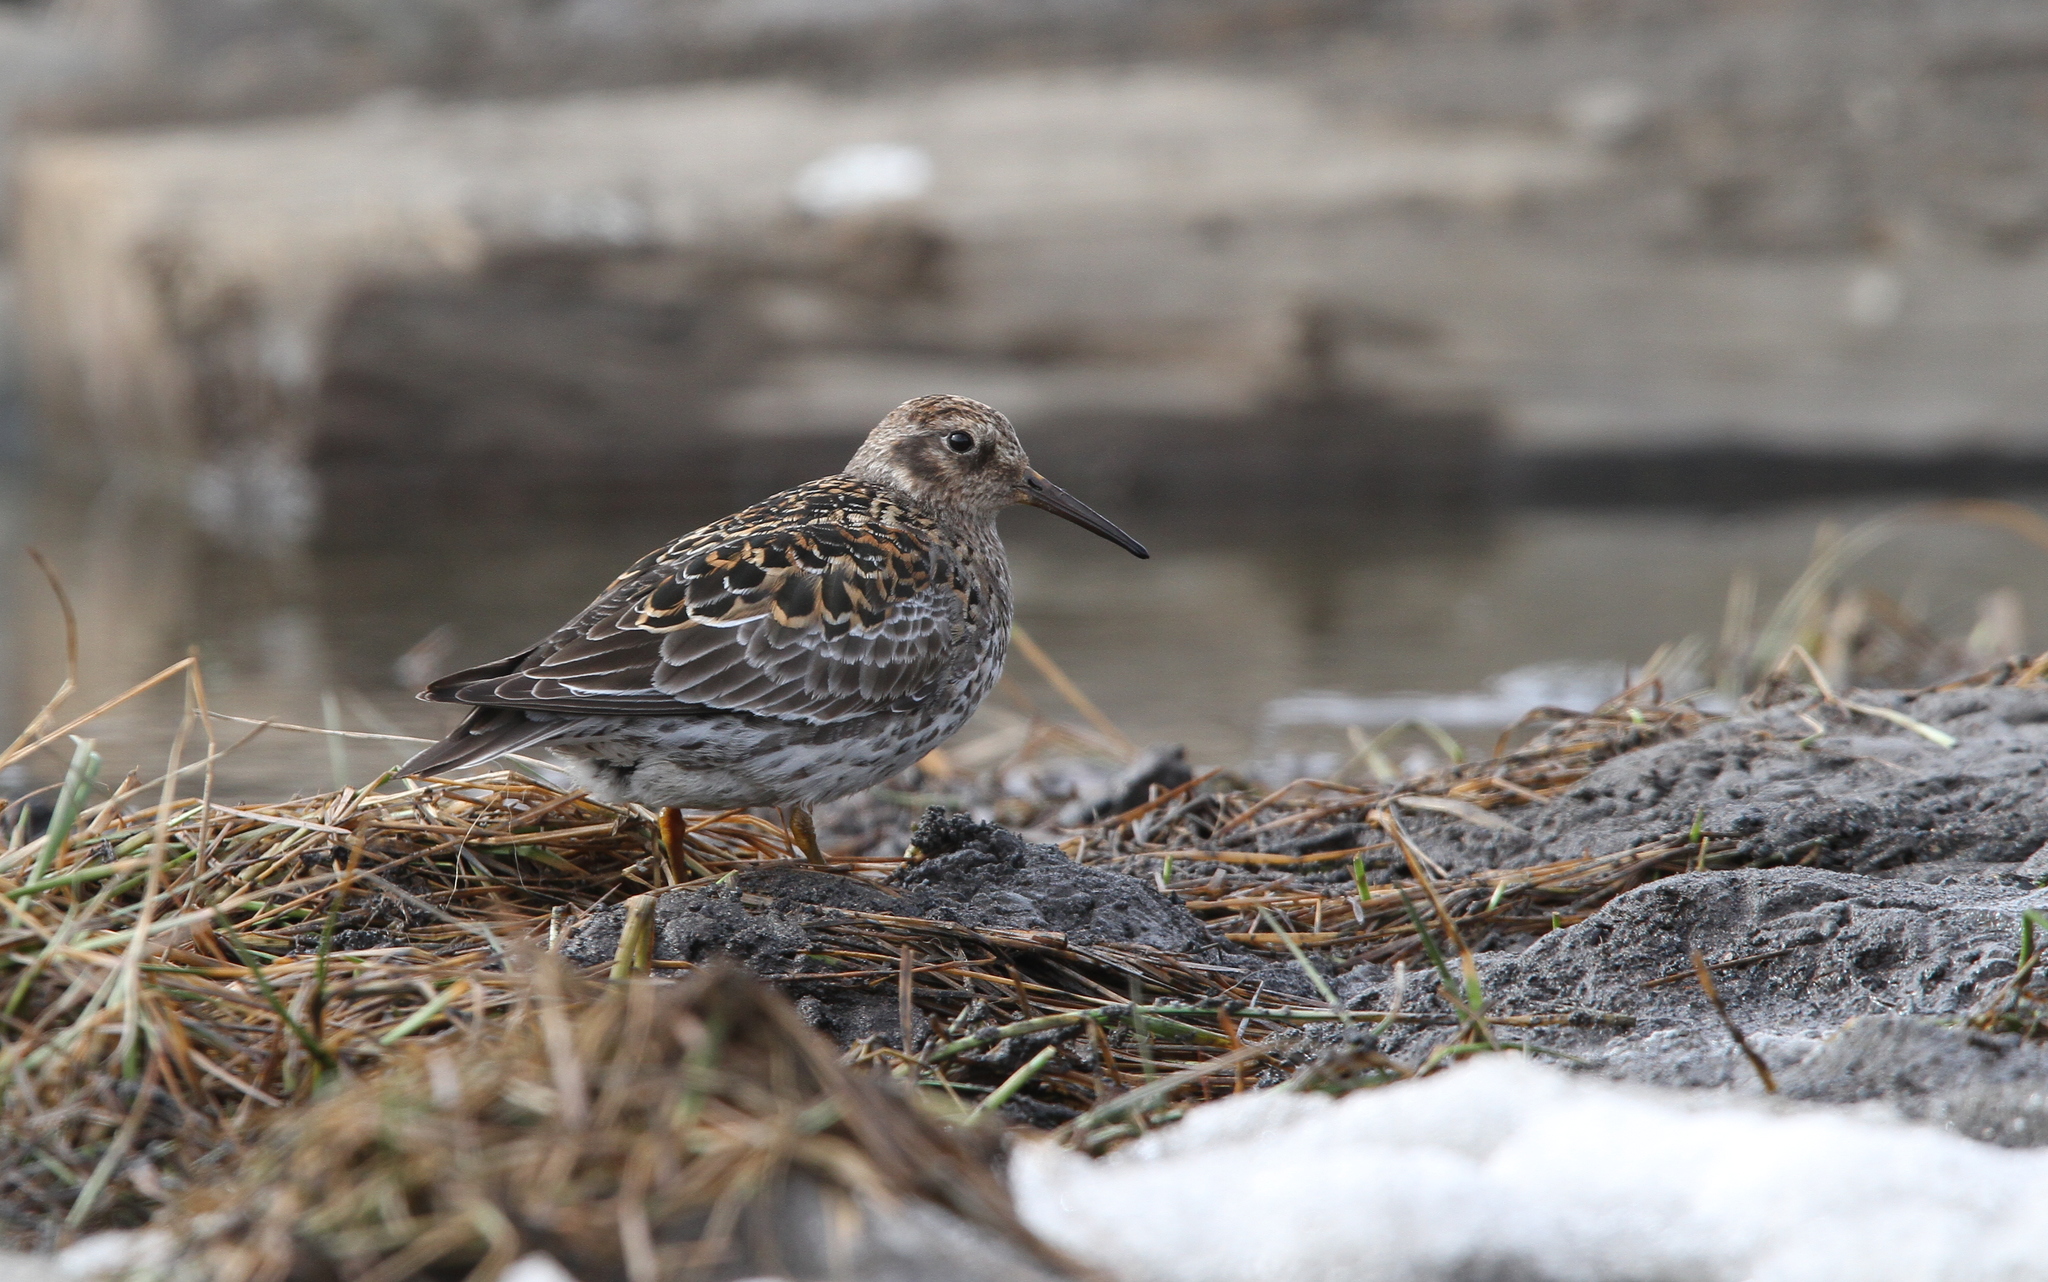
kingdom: Animalia
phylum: Chordata
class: Aves
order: Charadriiformes
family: Scolopacidae
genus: Calidris
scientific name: Calidris maritima
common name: Purple sandpiper
